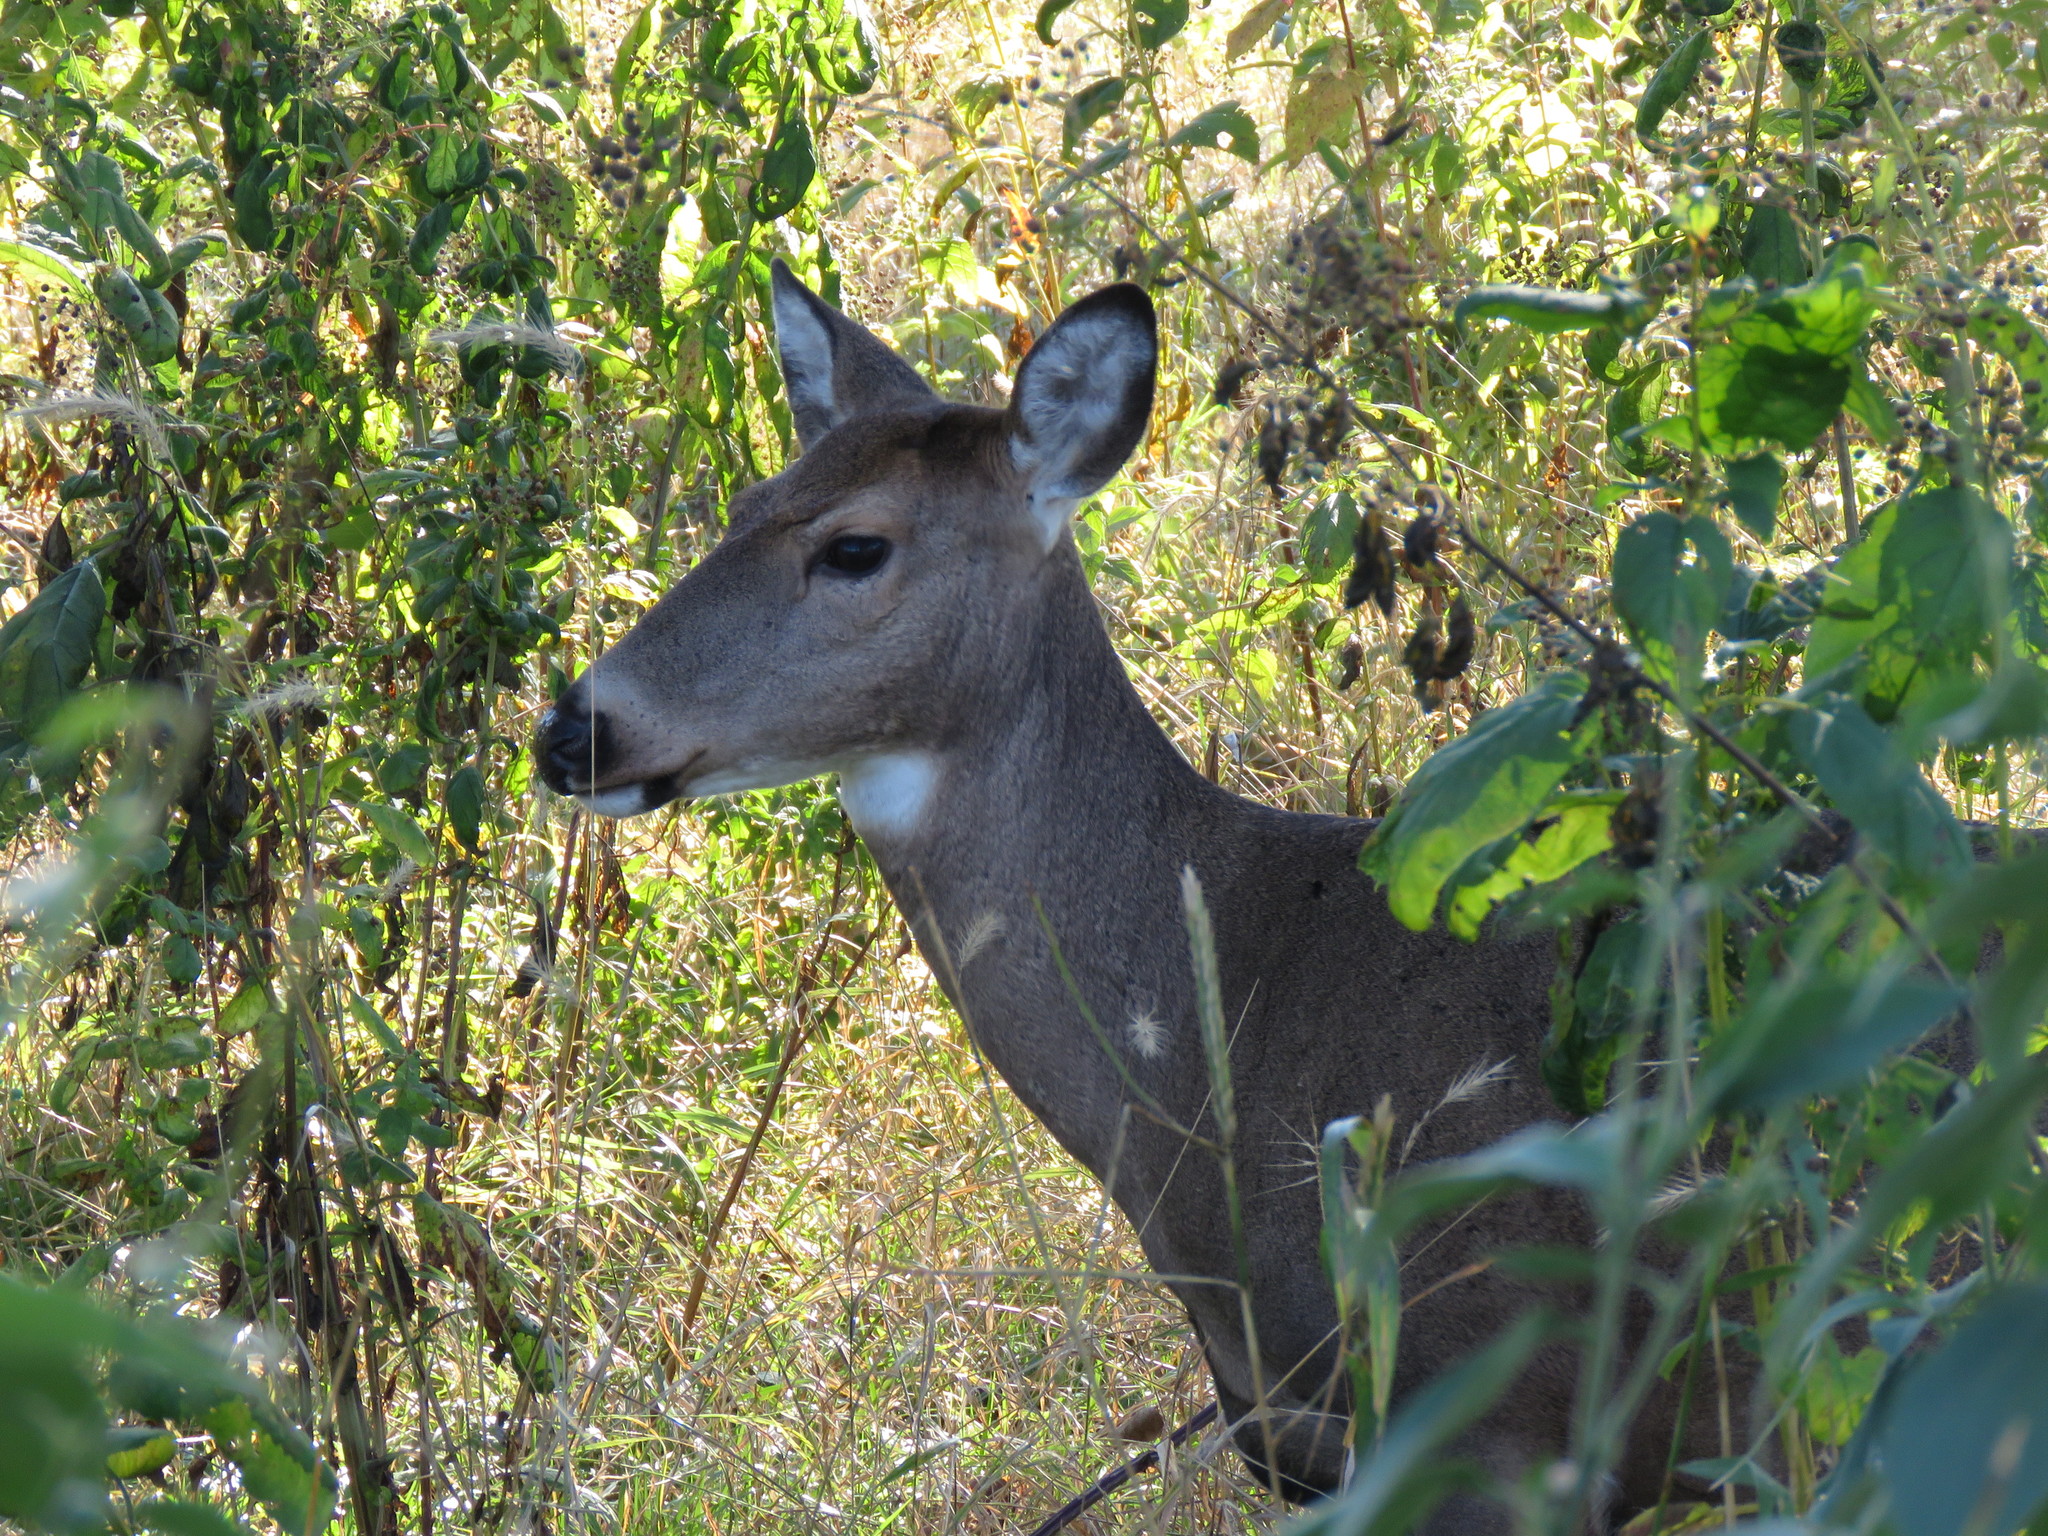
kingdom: Animalia
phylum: Chordata
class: Mammalia
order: Artiodactyla
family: Cervidae
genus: Odocoileus
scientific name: Odocoileus virginianus
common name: White-tailed deer
